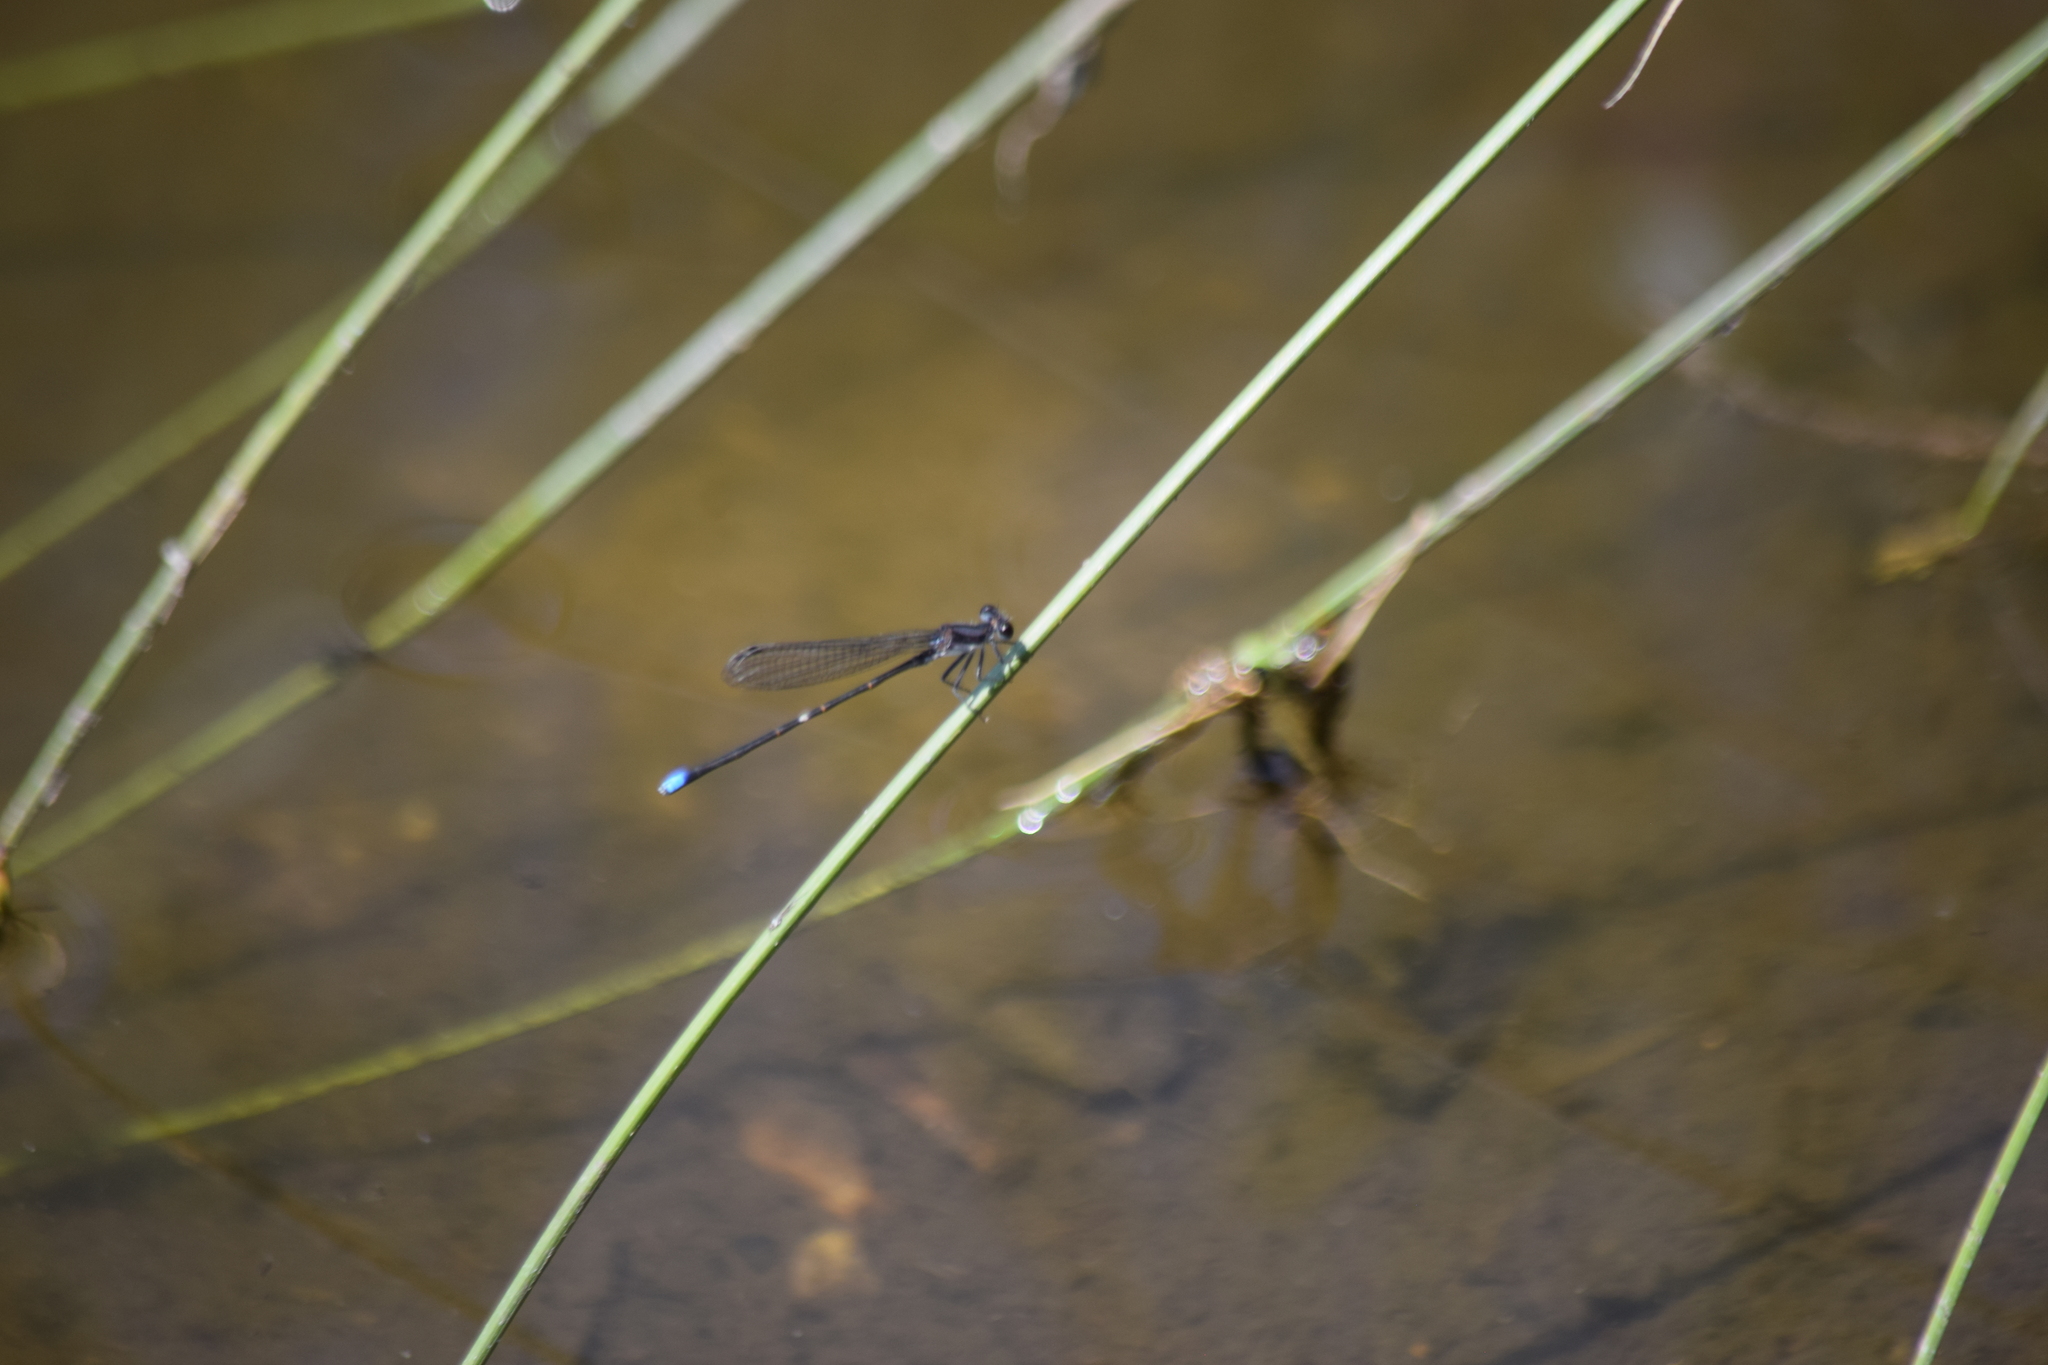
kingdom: Animalia
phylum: Arthropoda
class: Insecta
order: Odonata
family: Coenagrionidae
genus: Argia
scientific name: Argia tibialis
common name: Blue-tipped dancer
